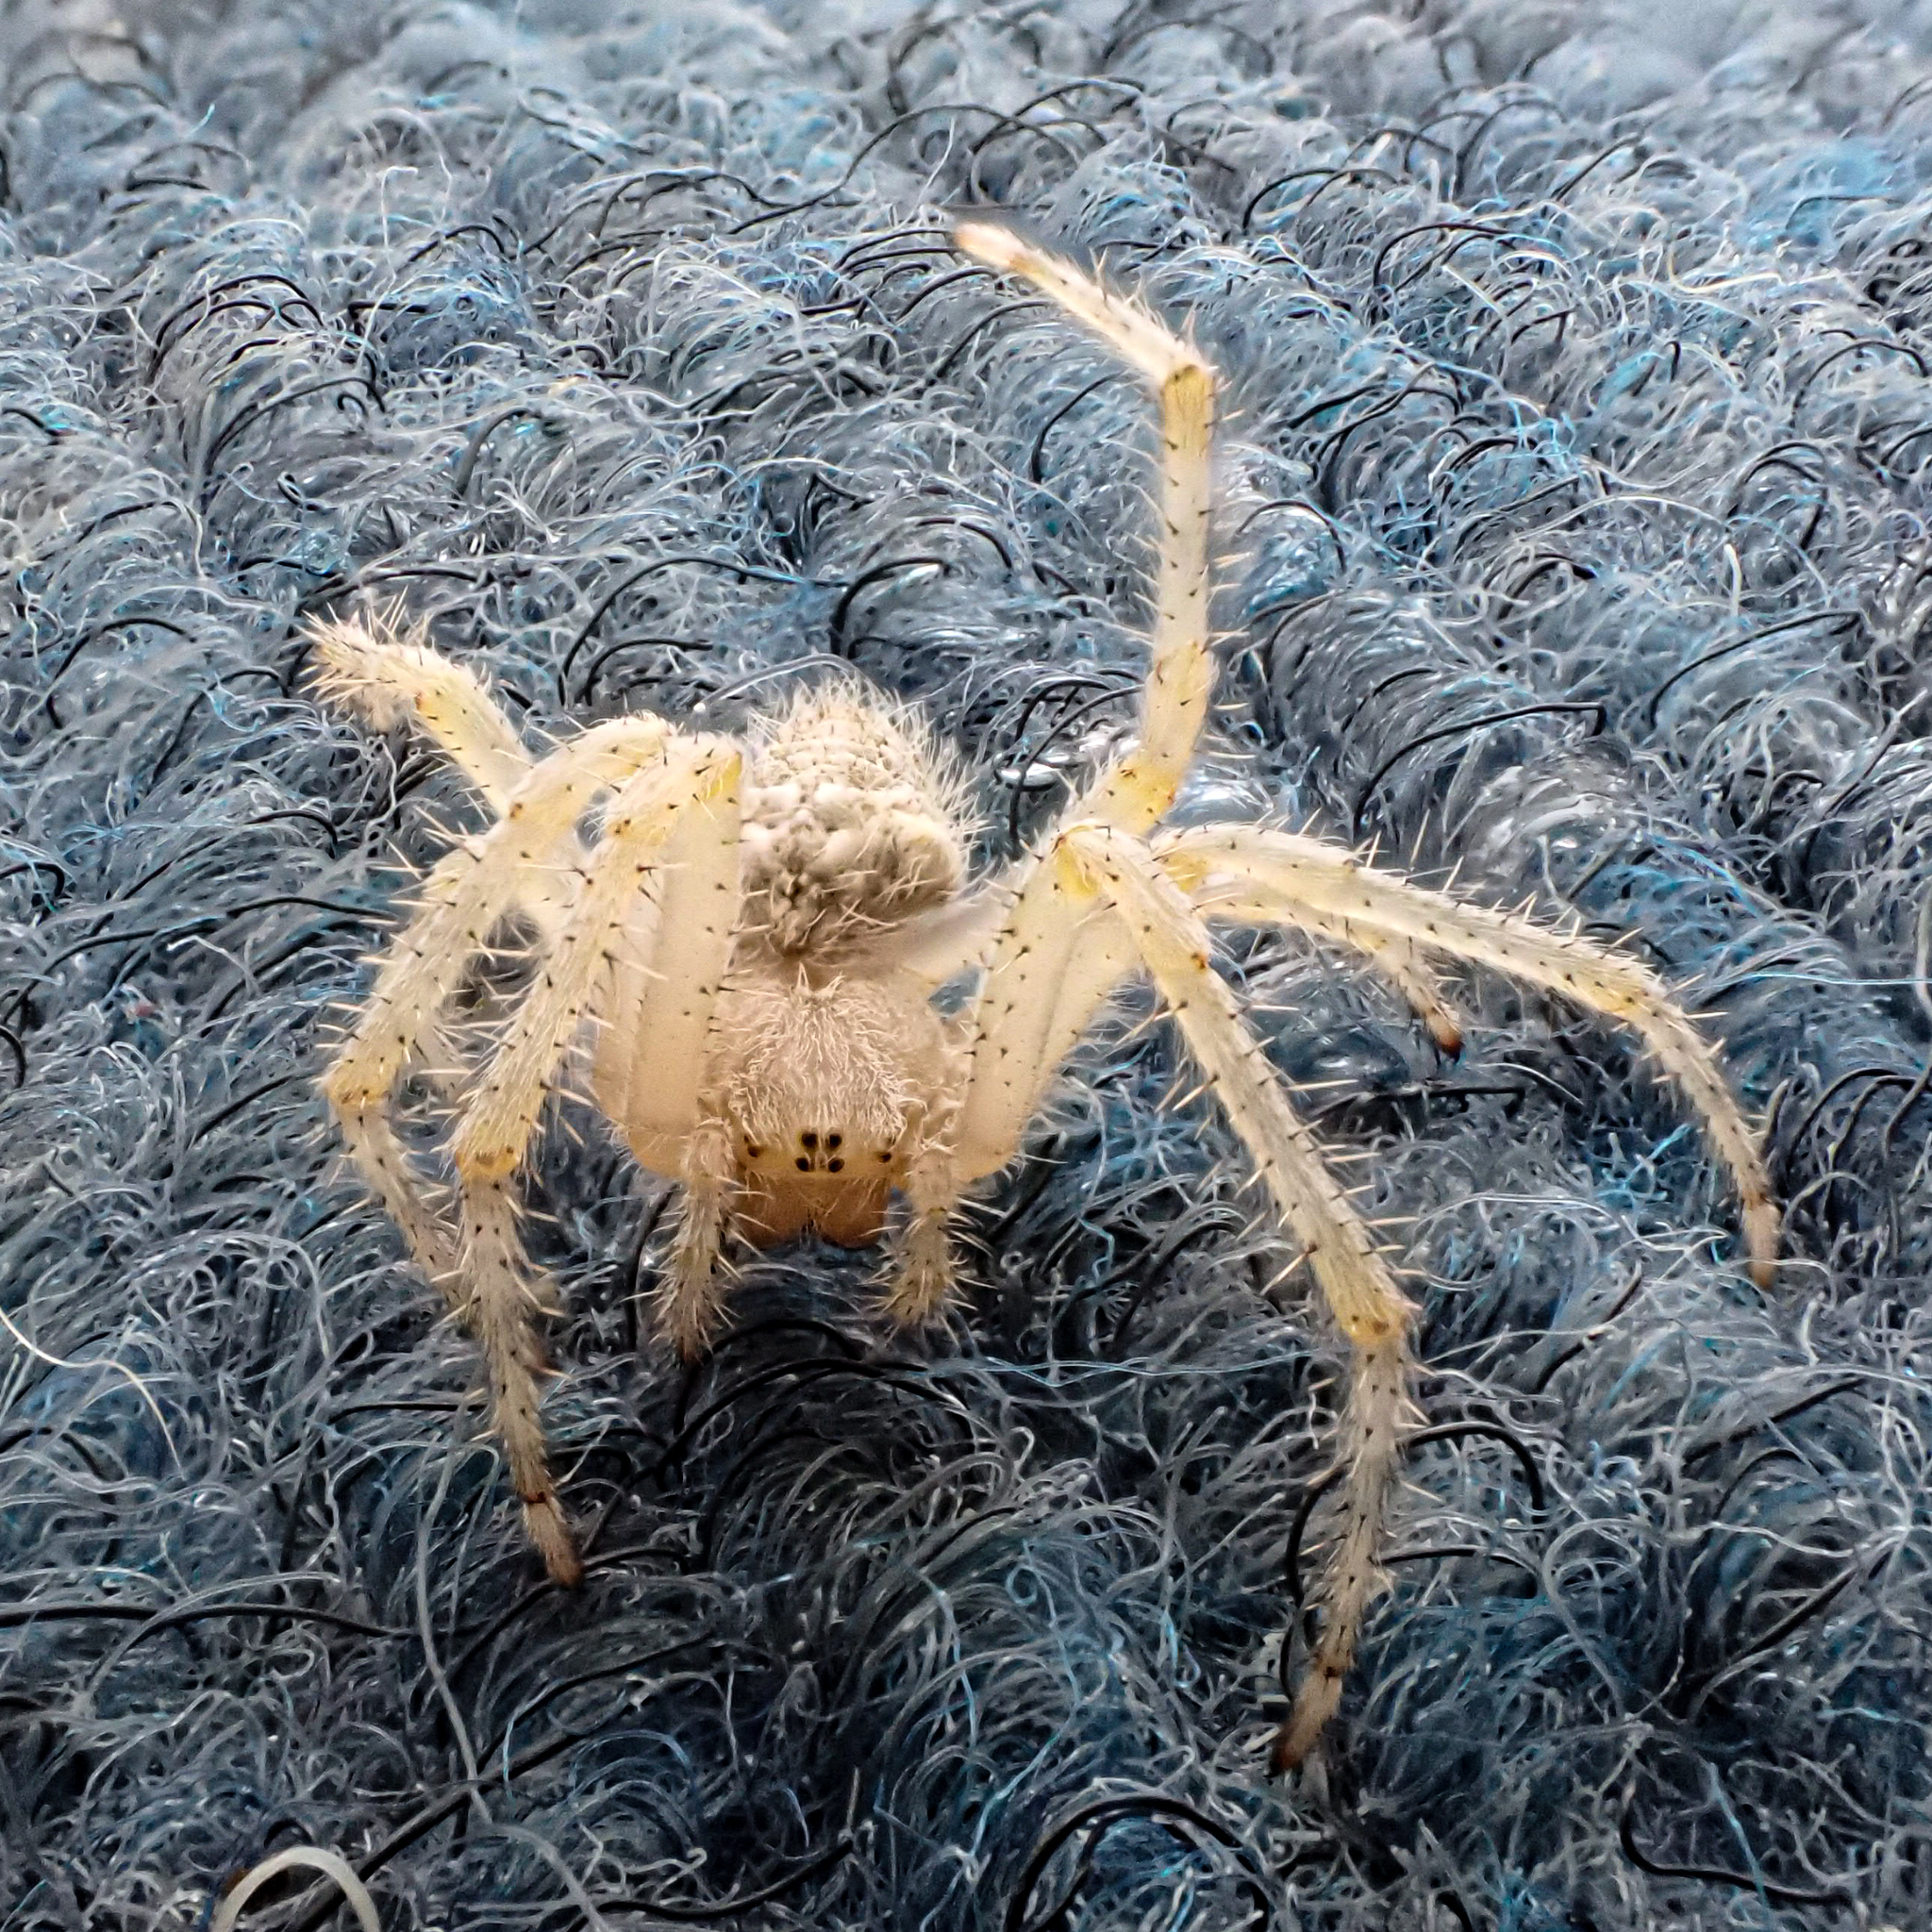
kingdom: Animalia
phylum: Arthropoda
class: Arachnida
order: Araneae
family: Araneidae
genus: Araneus
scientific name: Araneus cavaticus
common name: Barn orbweaver
